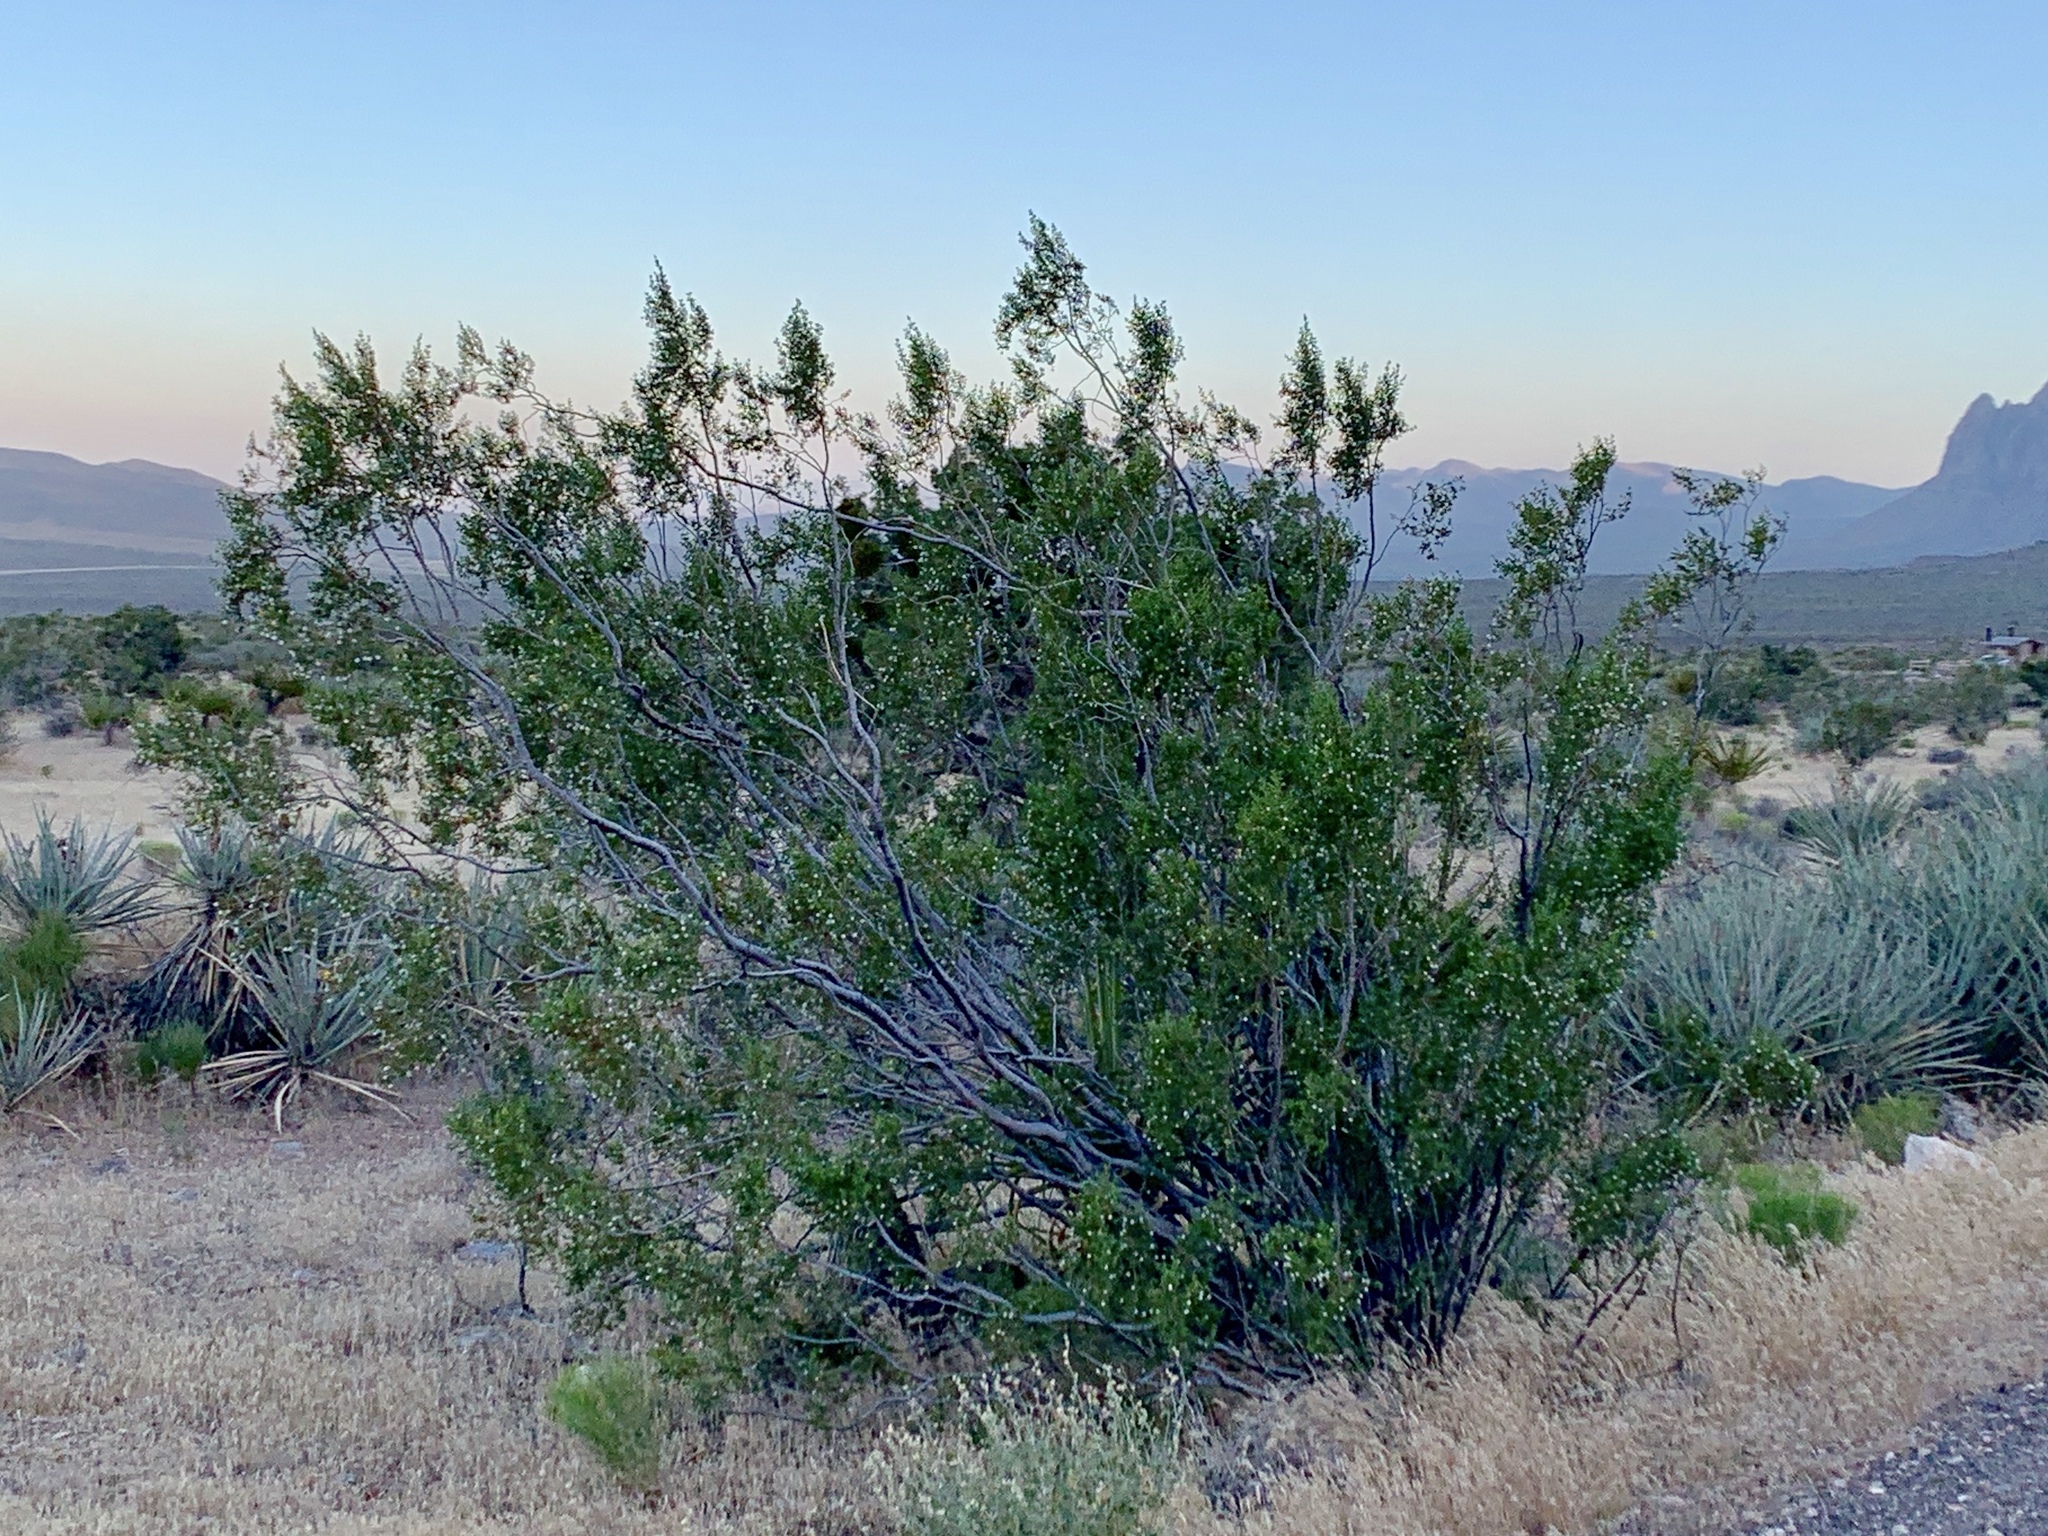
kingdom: Plantae
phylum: Tracheophyta
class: Magnoliopsida
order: Zygophyllales
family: Zygophyllaceae
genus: Larrea
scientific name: Larrea tridentata
